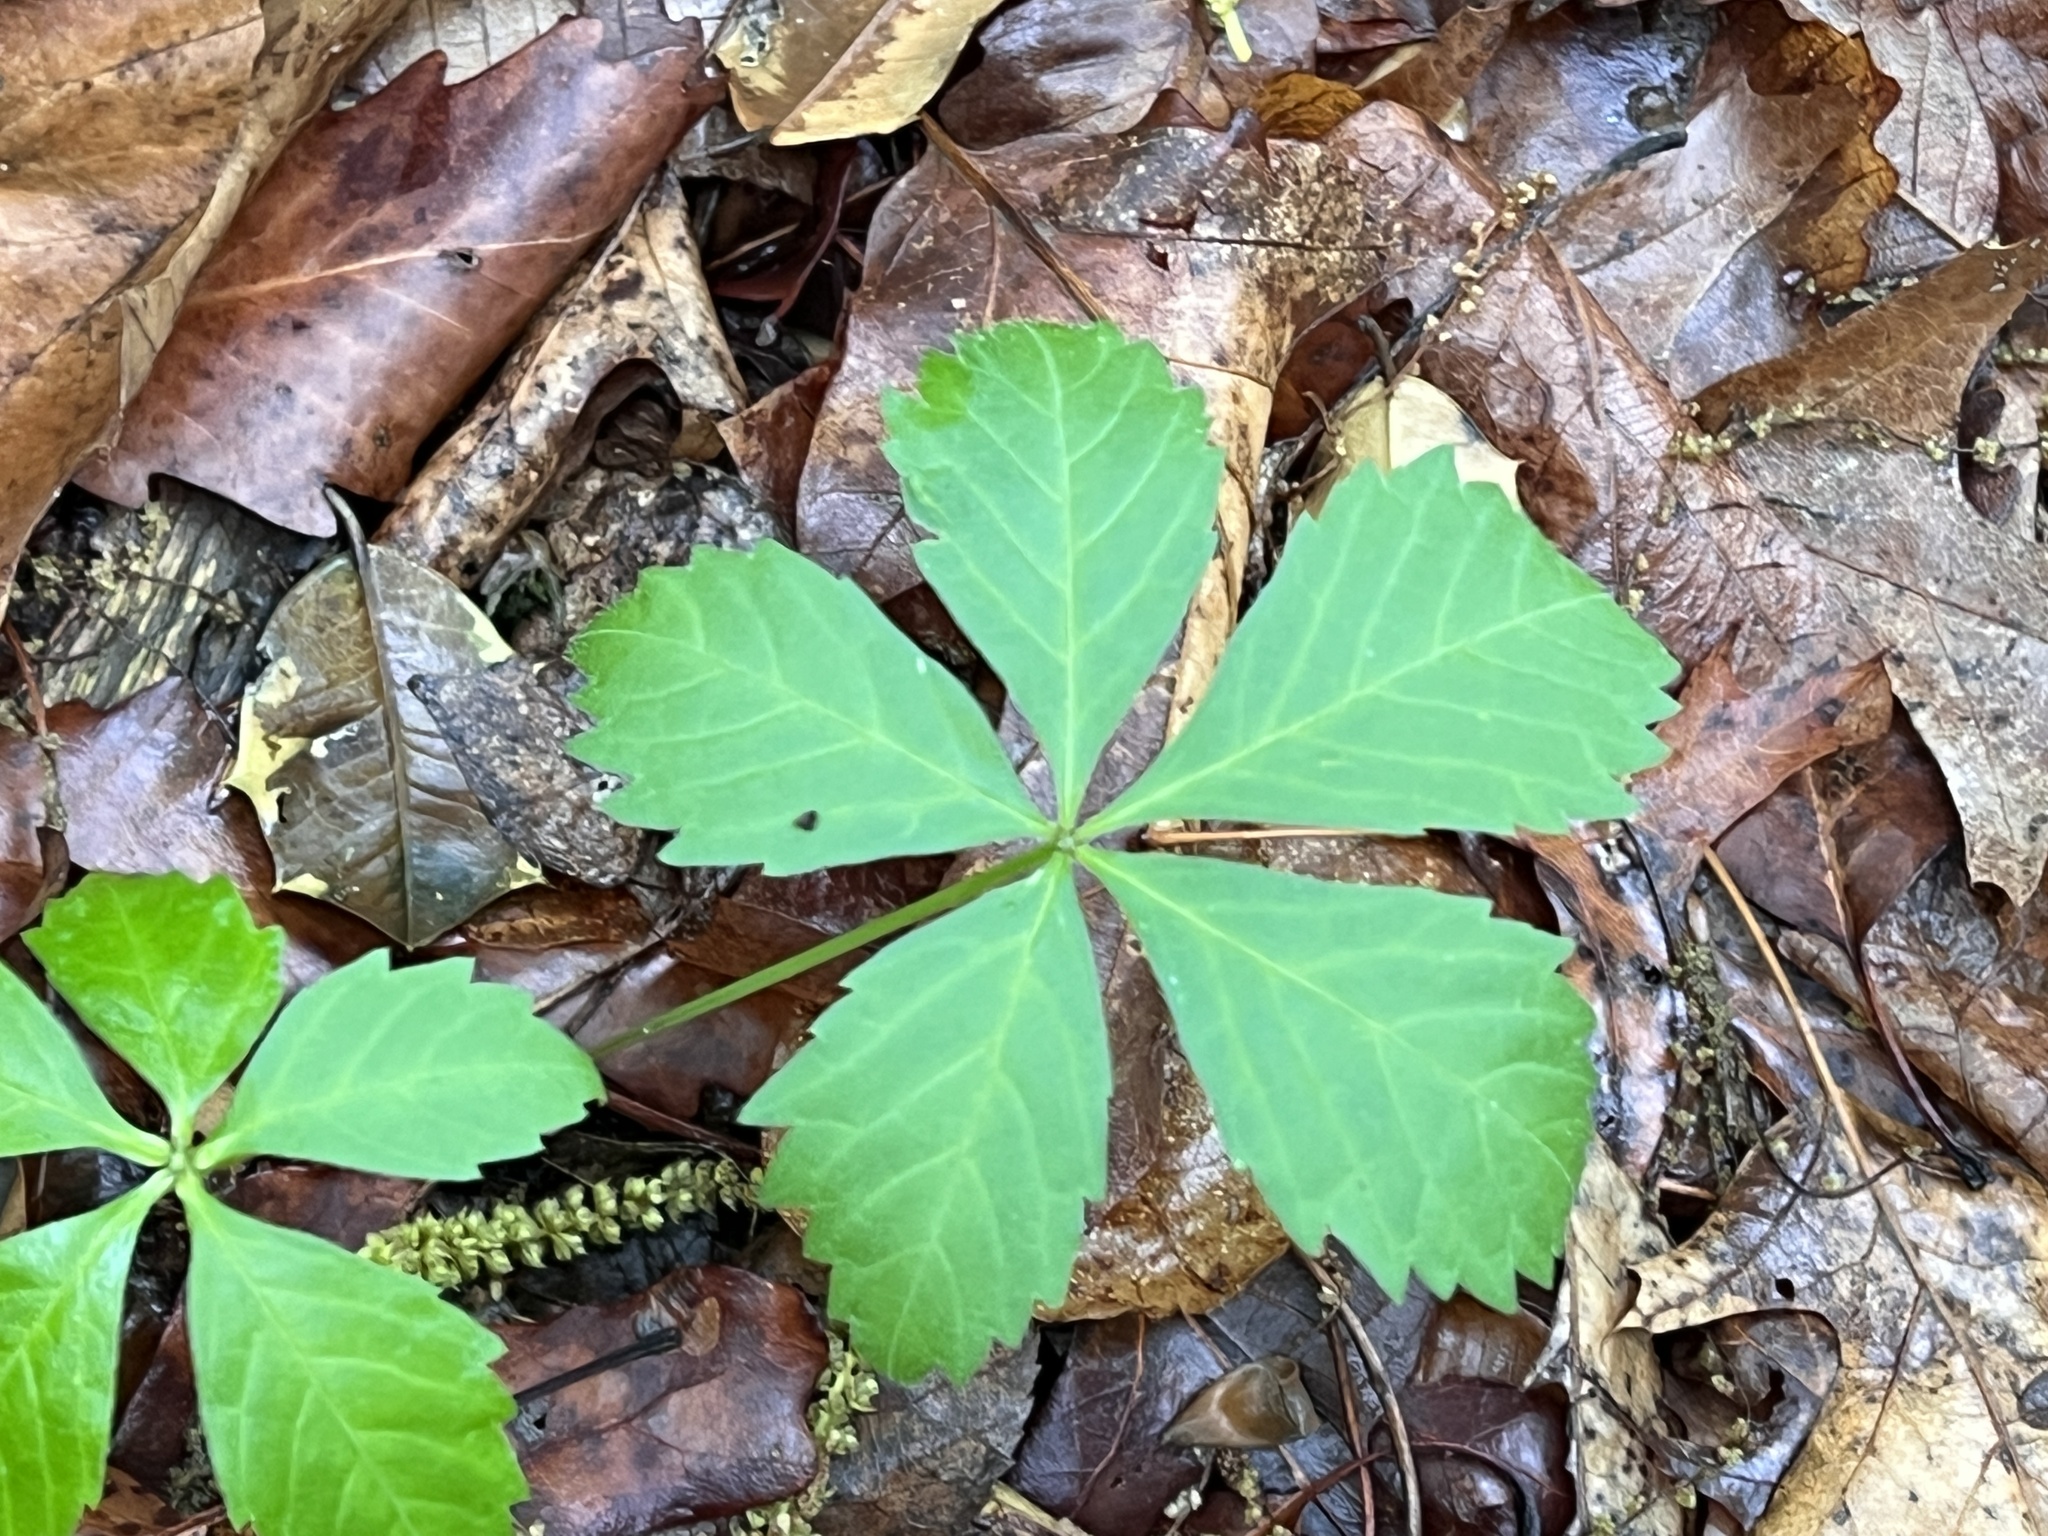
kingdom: Plantae
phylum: Tracheophyta
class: Magnoliopsida
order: Vitales
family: Vitaceae
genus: Parthenocissus
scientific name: Parthenocissus quinquefolia
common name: Virginia-creeper
